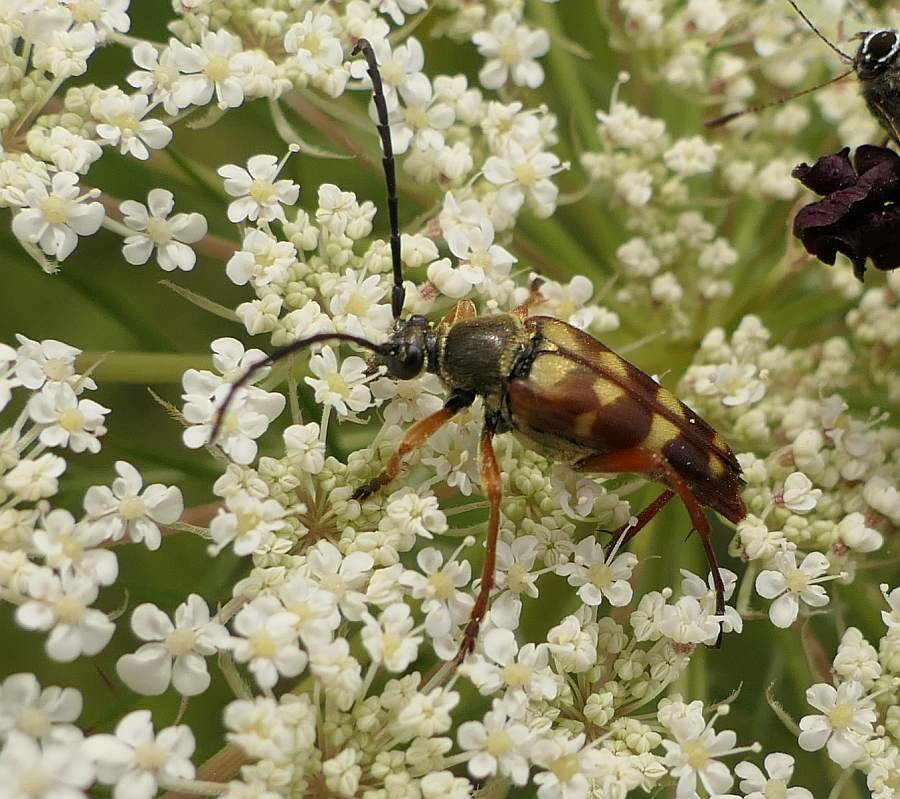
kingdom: Animalia
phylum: Arthropoda
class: Insecta
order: Coleoptera
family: Cerambycidae
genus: Typocerus
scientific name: Typocerus velutinus
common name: Banded longhorn beetle
